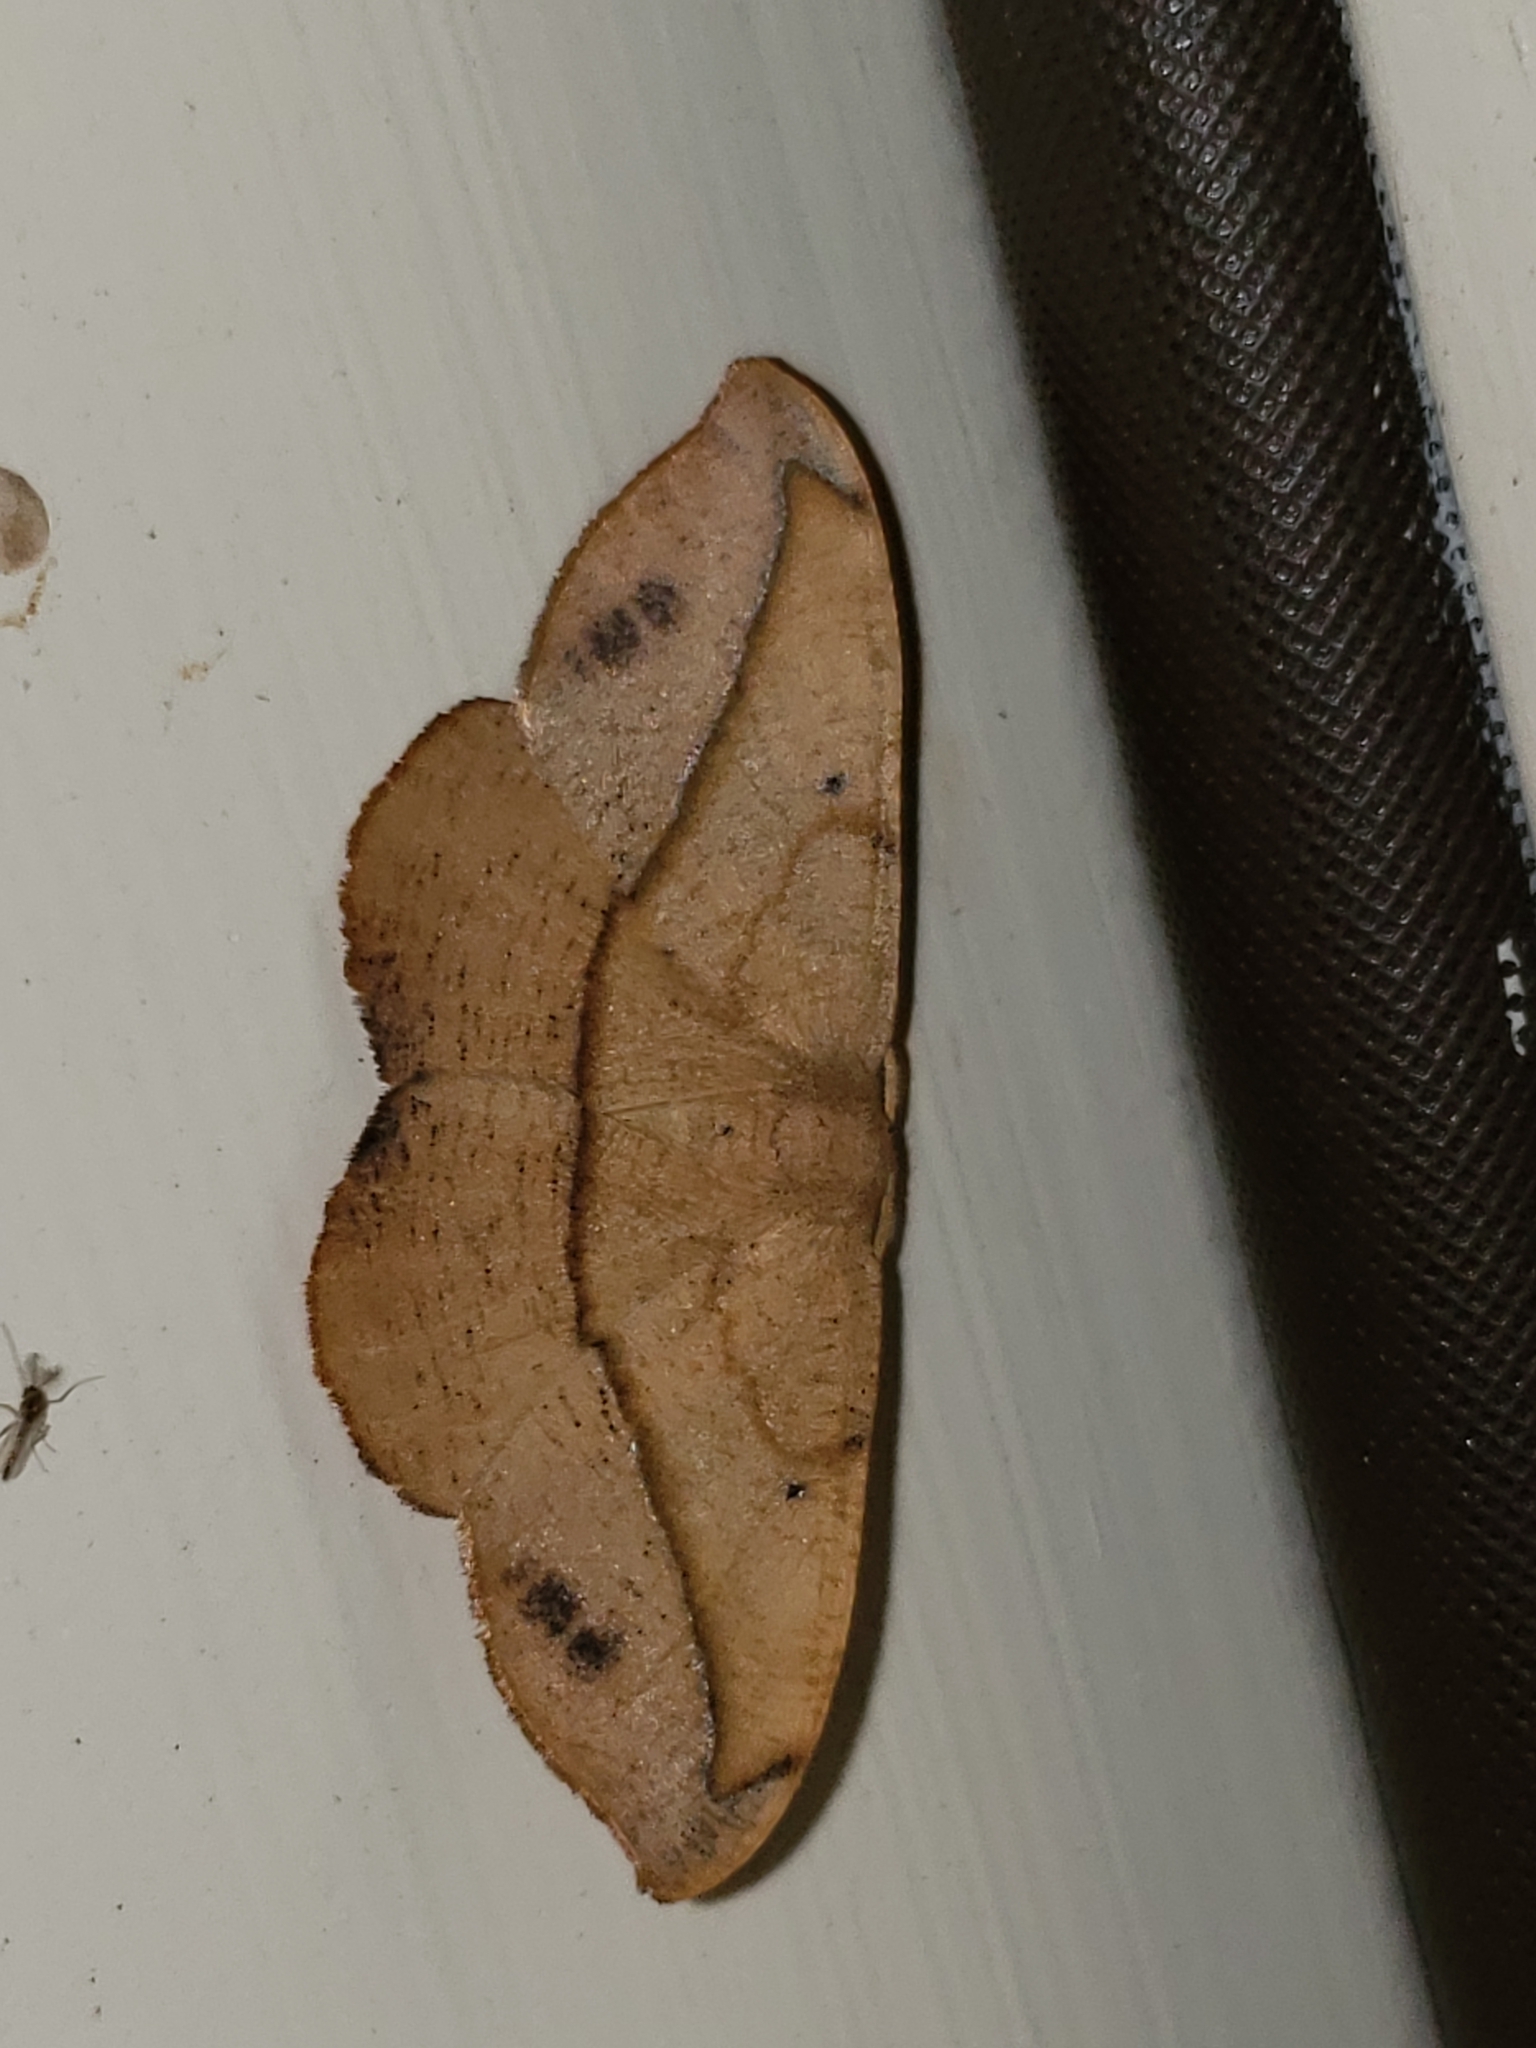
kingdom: Animalia
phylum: Arthropoda
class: Insecta
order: Lepidoptera
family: Geometridae
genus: Patalene
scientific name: Patalene olyzonaria
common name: Juniper geometer moth
